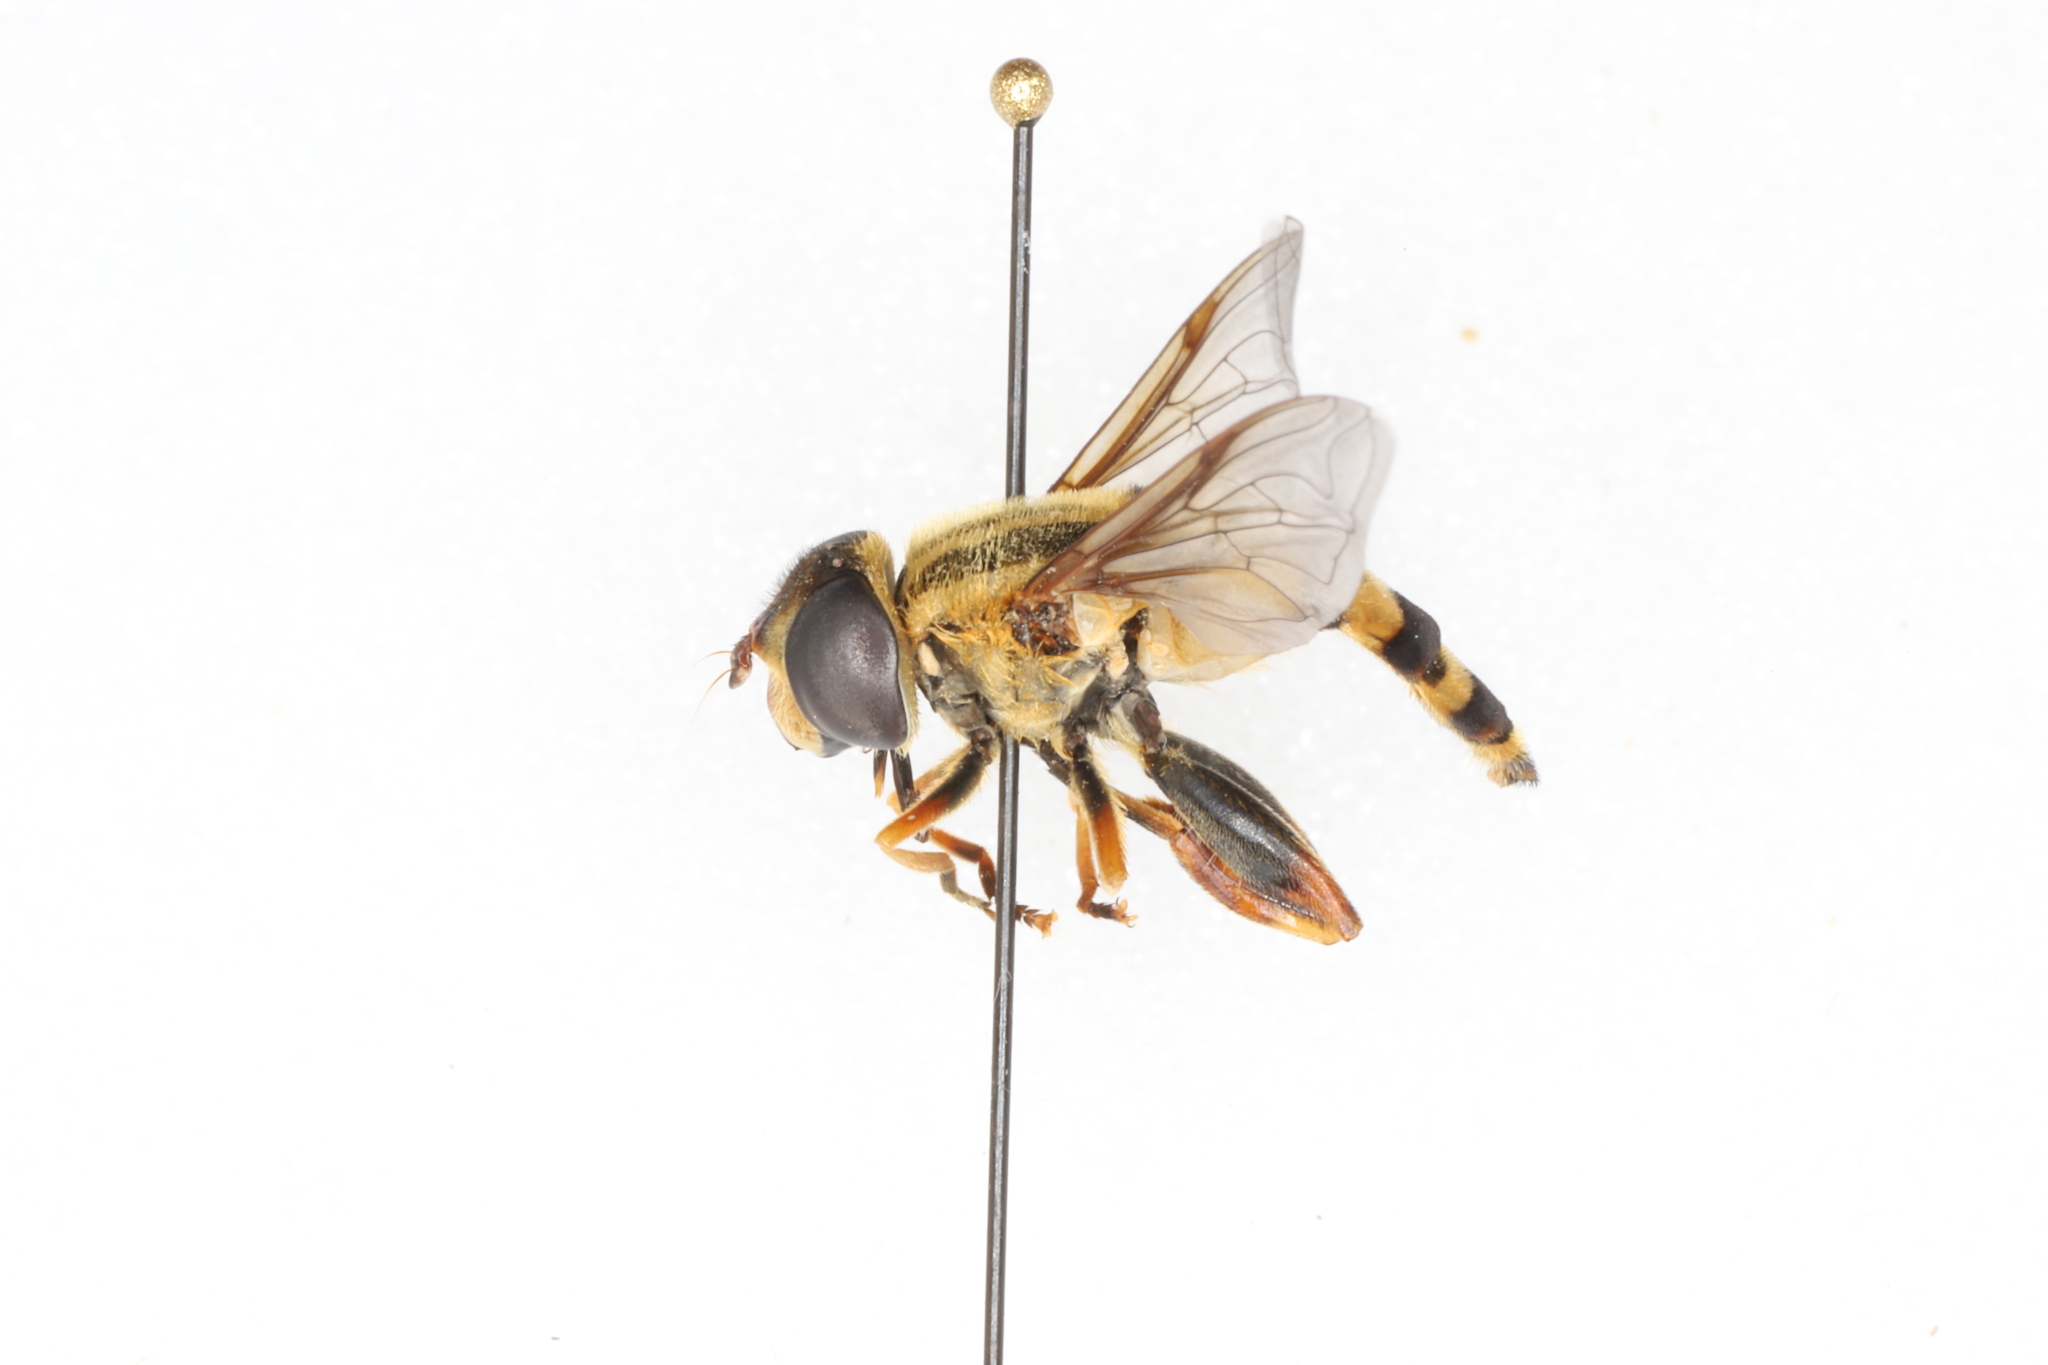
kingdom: Animalia
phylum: Arthropoda
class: Insecta
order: Diptera
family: Syrphidae
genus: Helophilus
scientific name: Helophilus fasciatus
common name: Narrow-headed marsh fly
